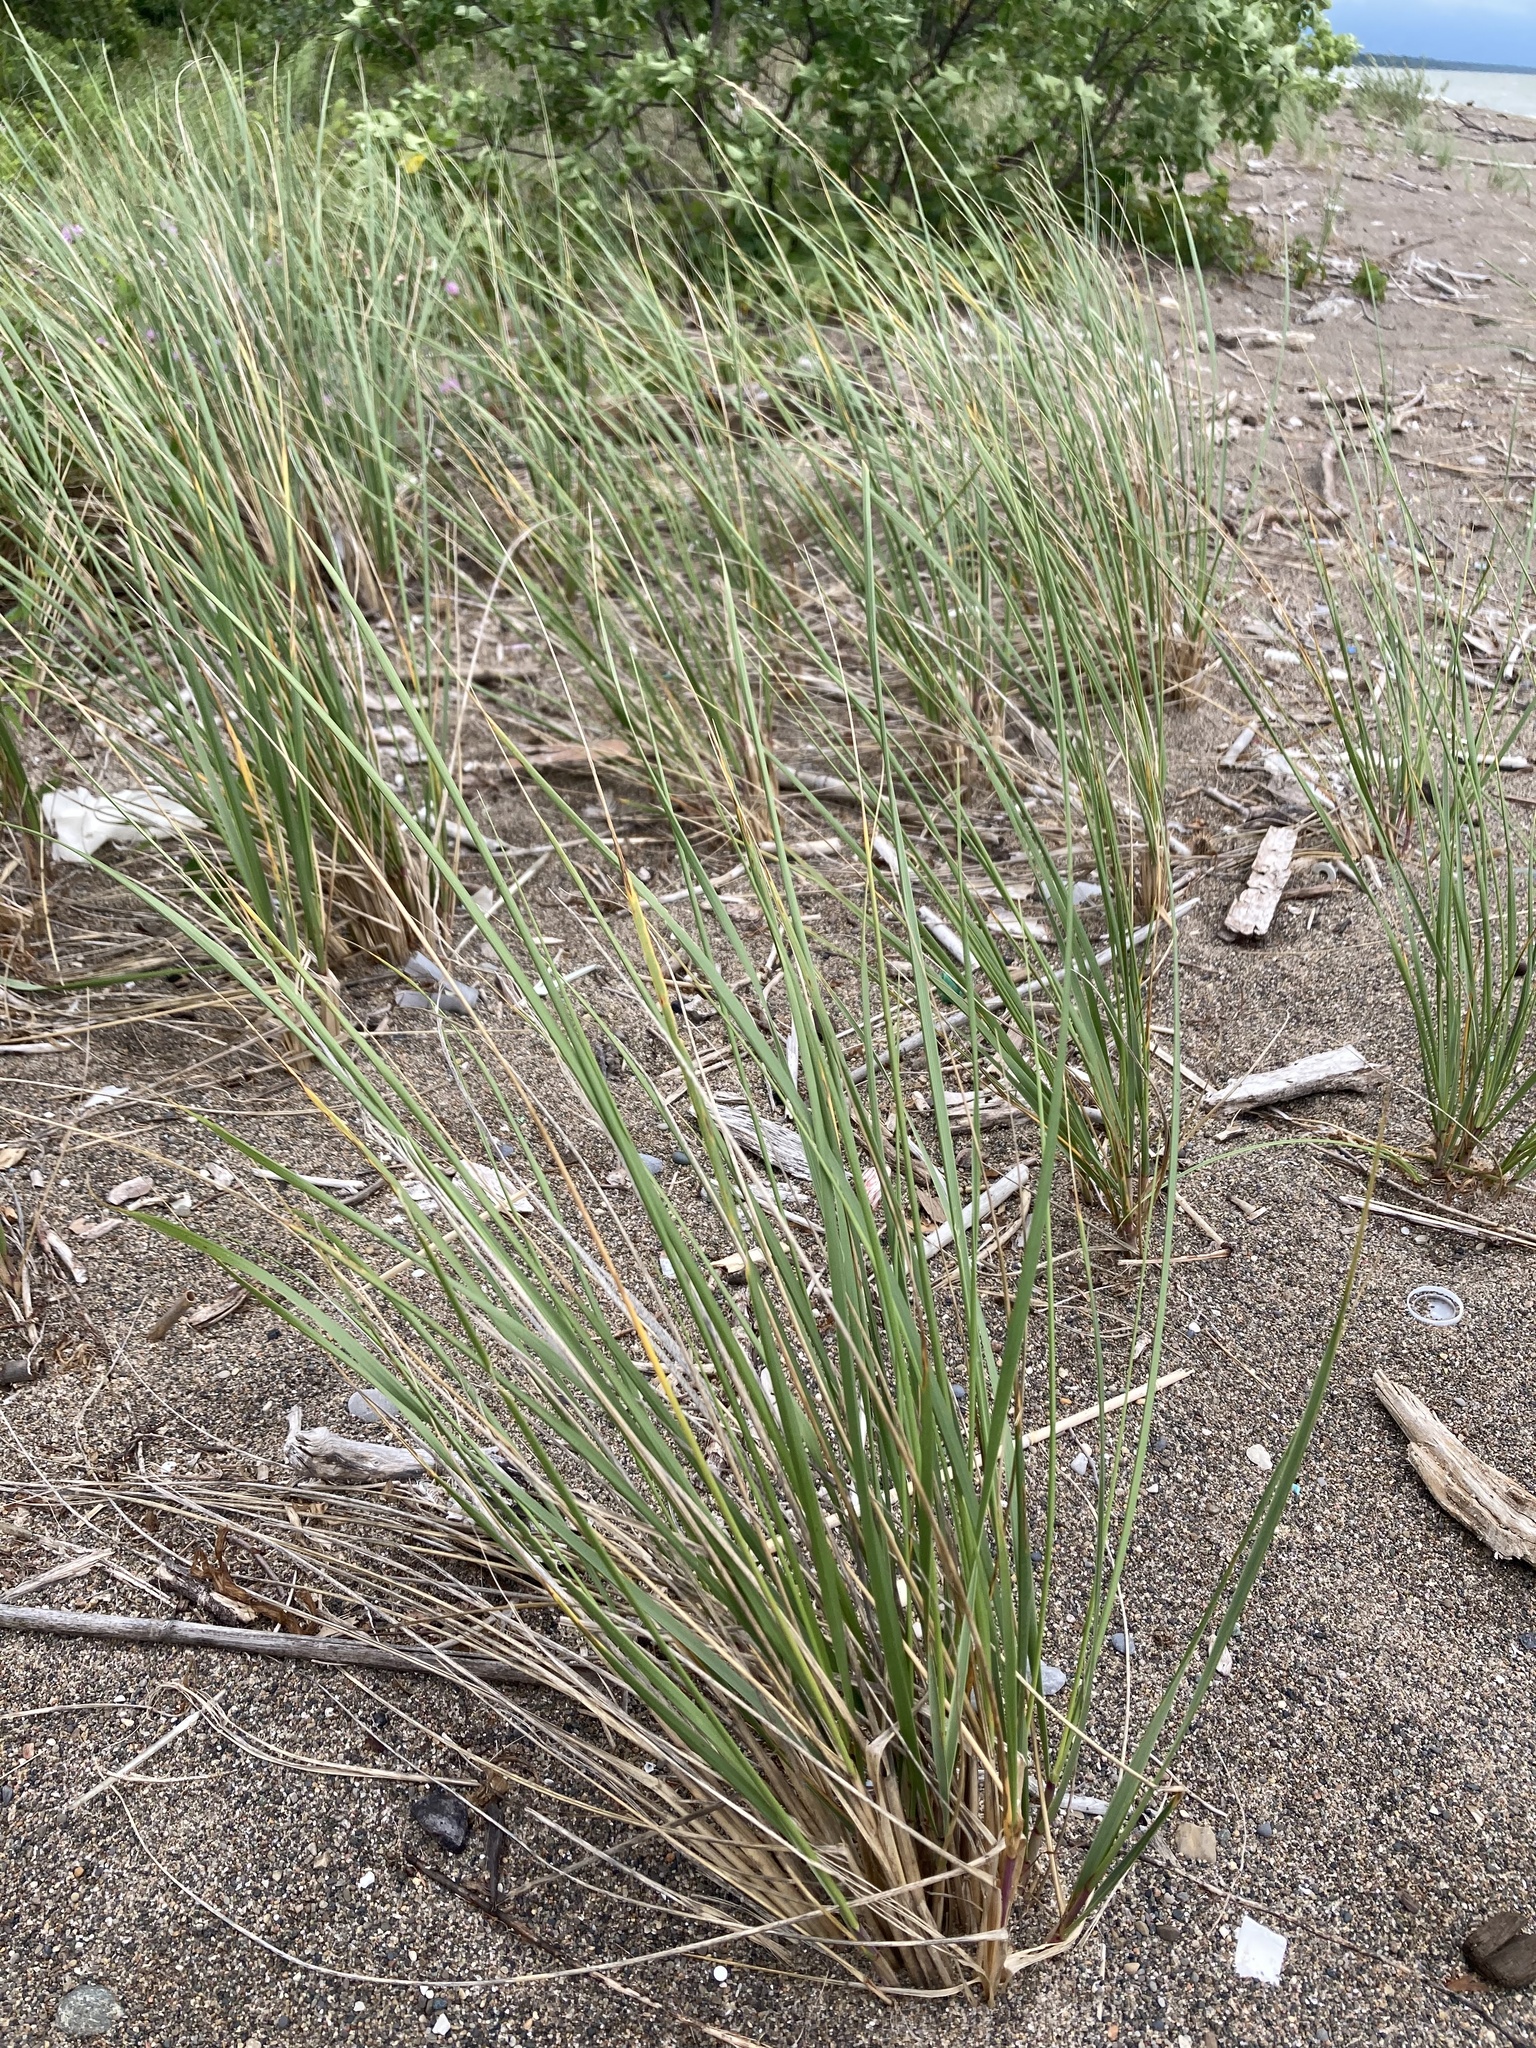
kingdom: Plantae
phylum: Tracheophyta
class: Liliopsida
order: Poales
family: Poaceae
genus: Calamagrostis
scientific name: Calamagrostis breviligulata
